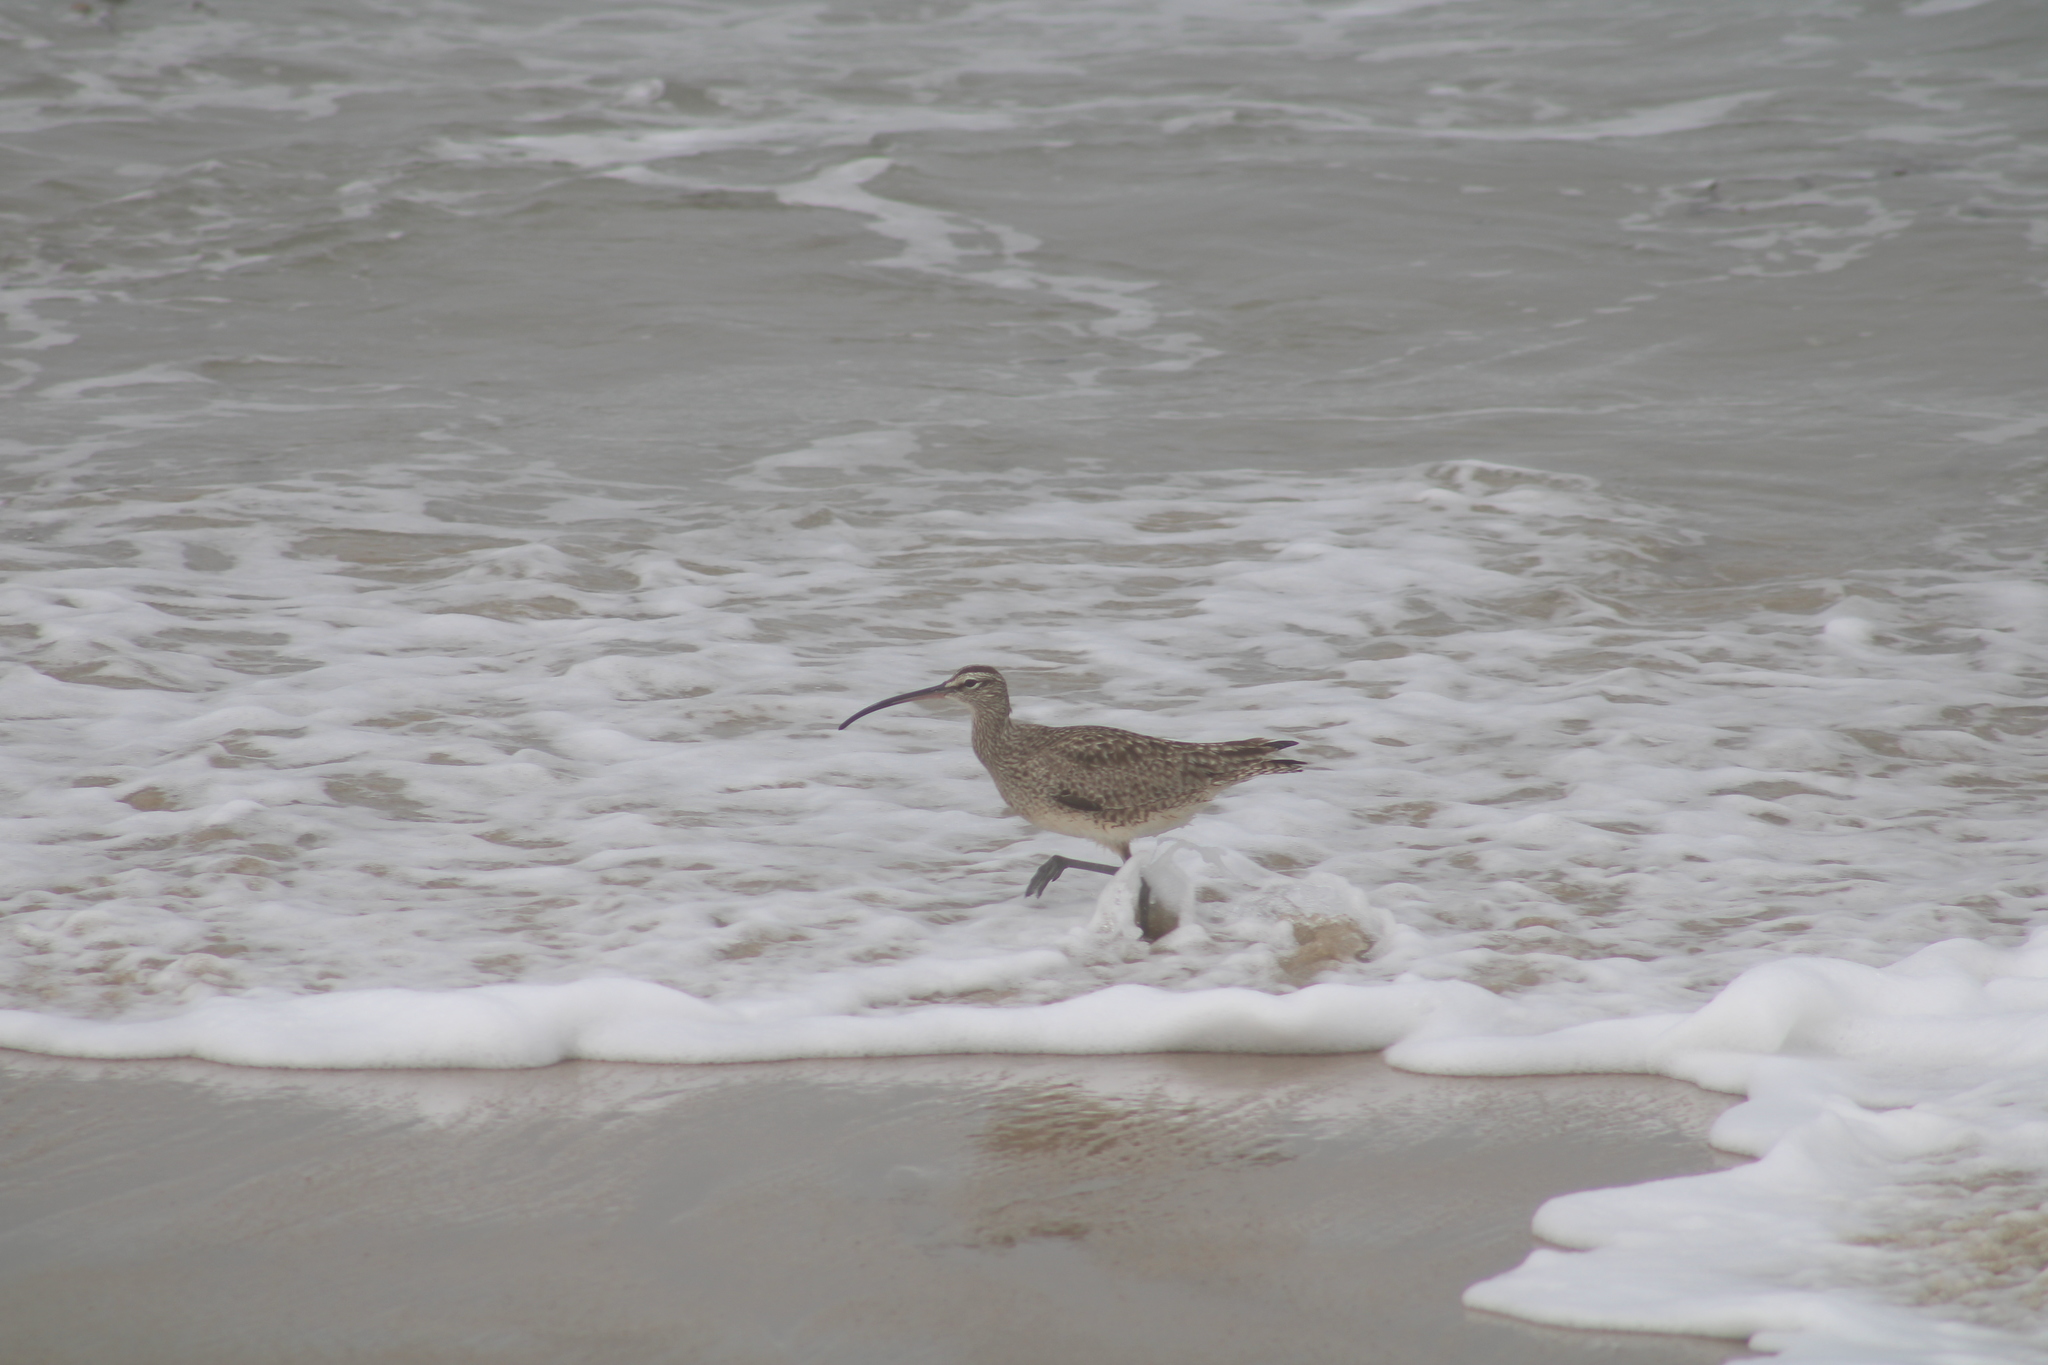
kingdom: Animalia
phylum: Chordata
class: Aves
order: Charadriiformes
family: Scolopacidae
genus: Numenius
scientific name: Numenius phaeopus
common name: Whimbrel
